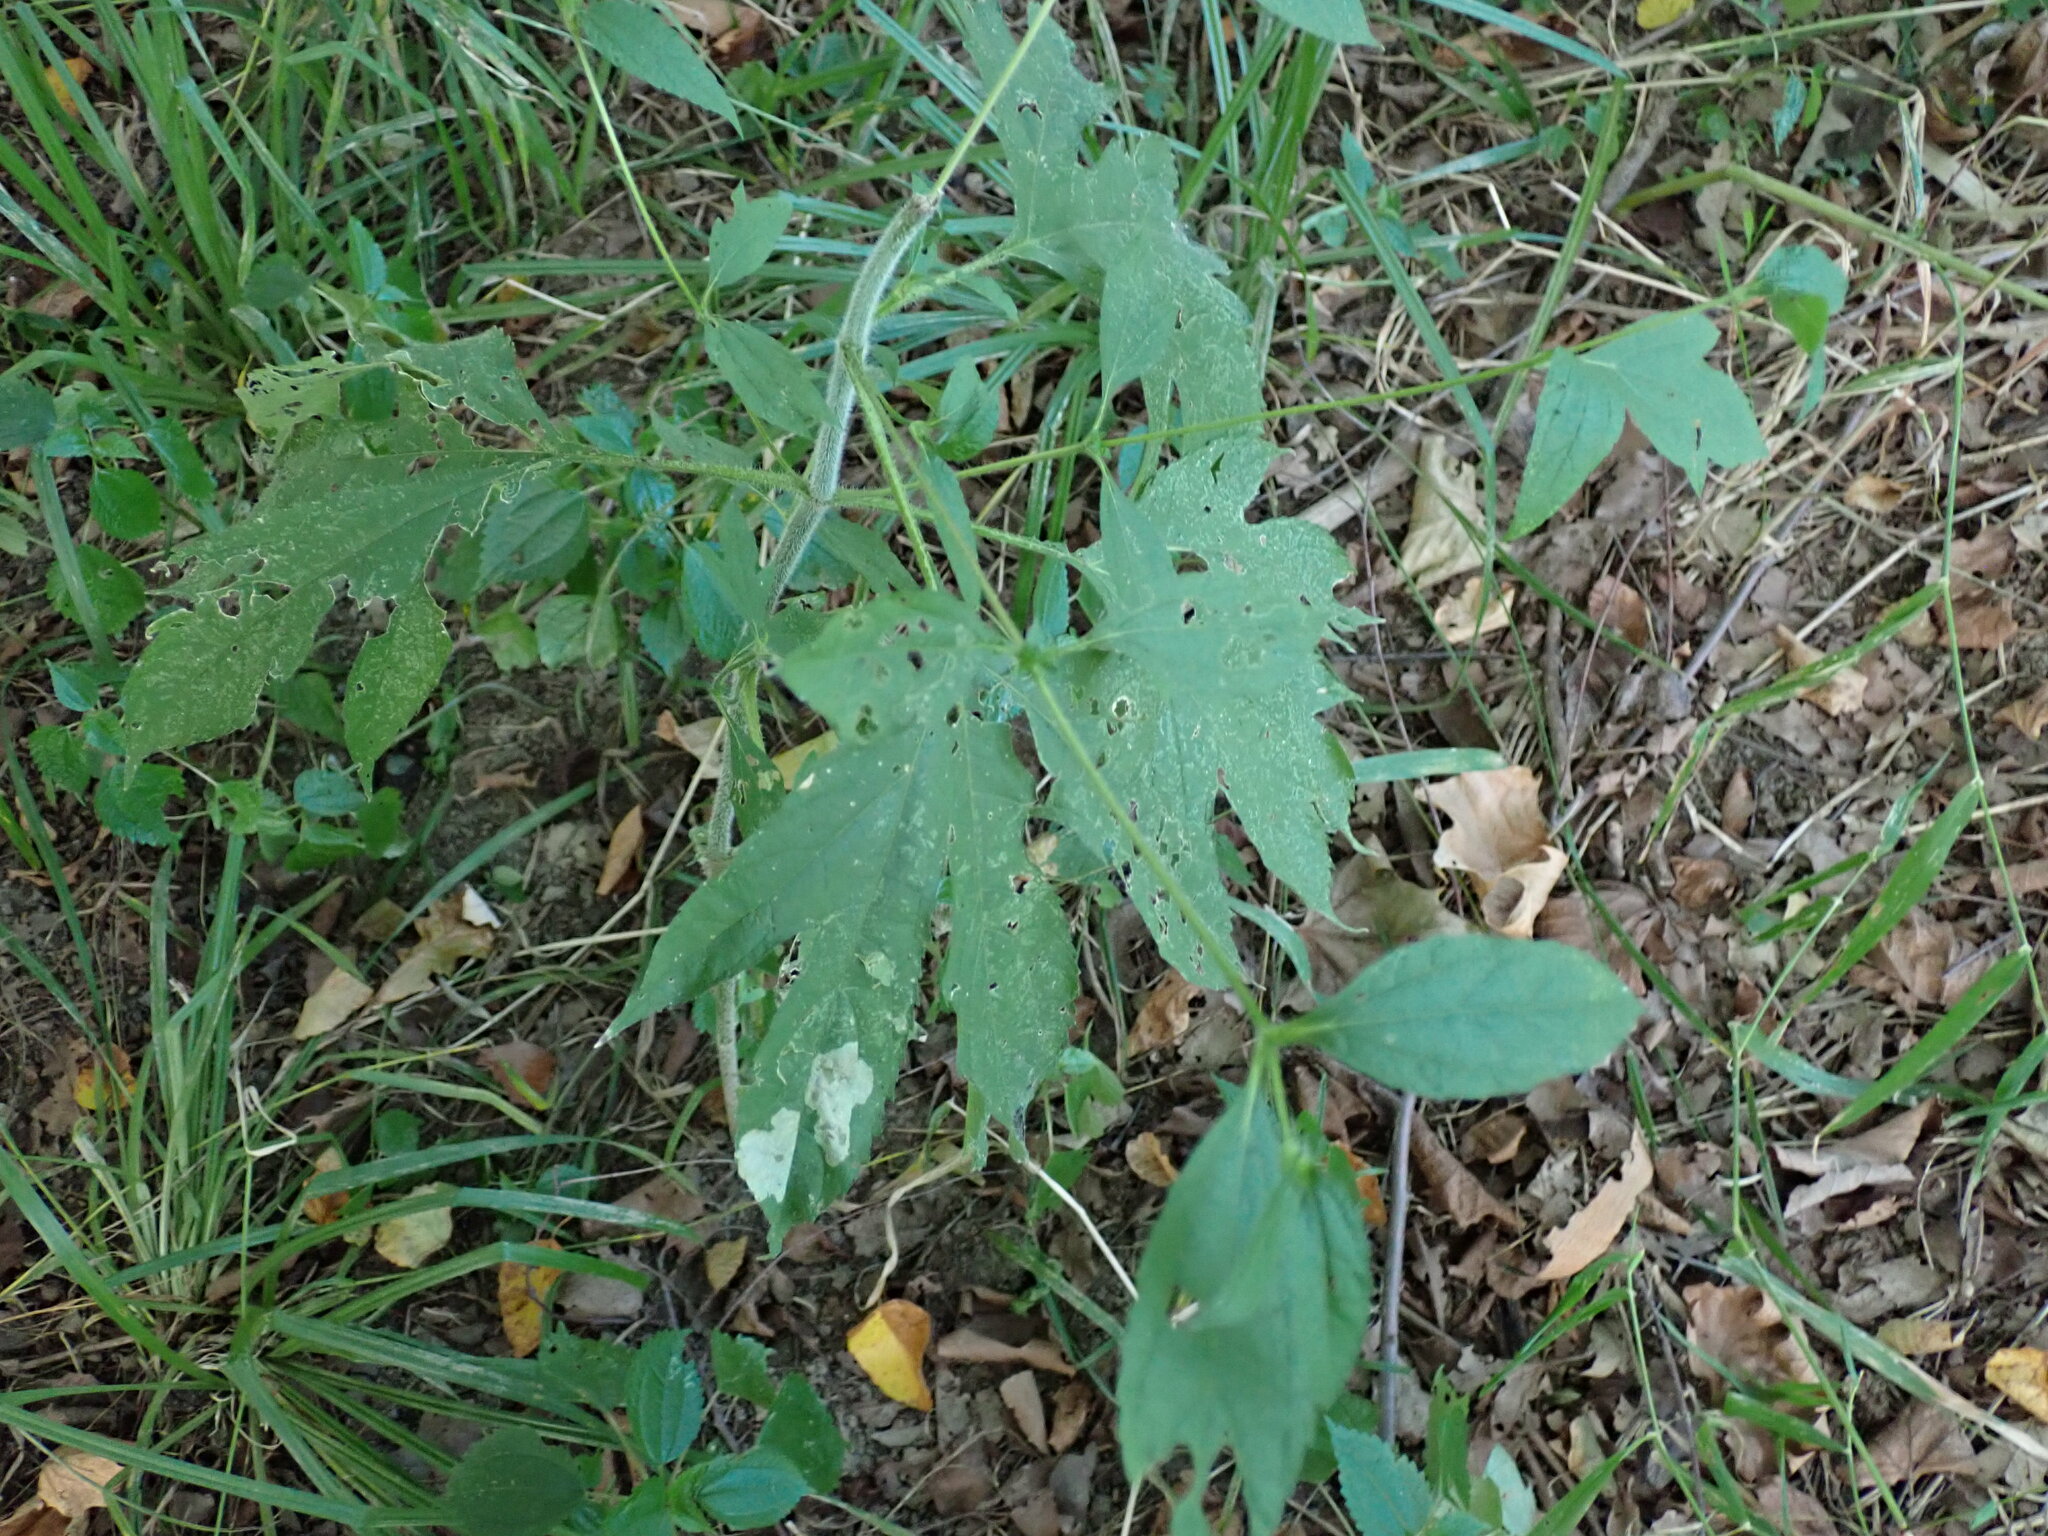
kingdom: Plantae
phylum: Tracheophyta
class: Magnoliopsida
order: Asterales
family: Asteraceae
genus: Ambrosia
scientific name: Ambrosia trifida
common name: Giant ragweed
